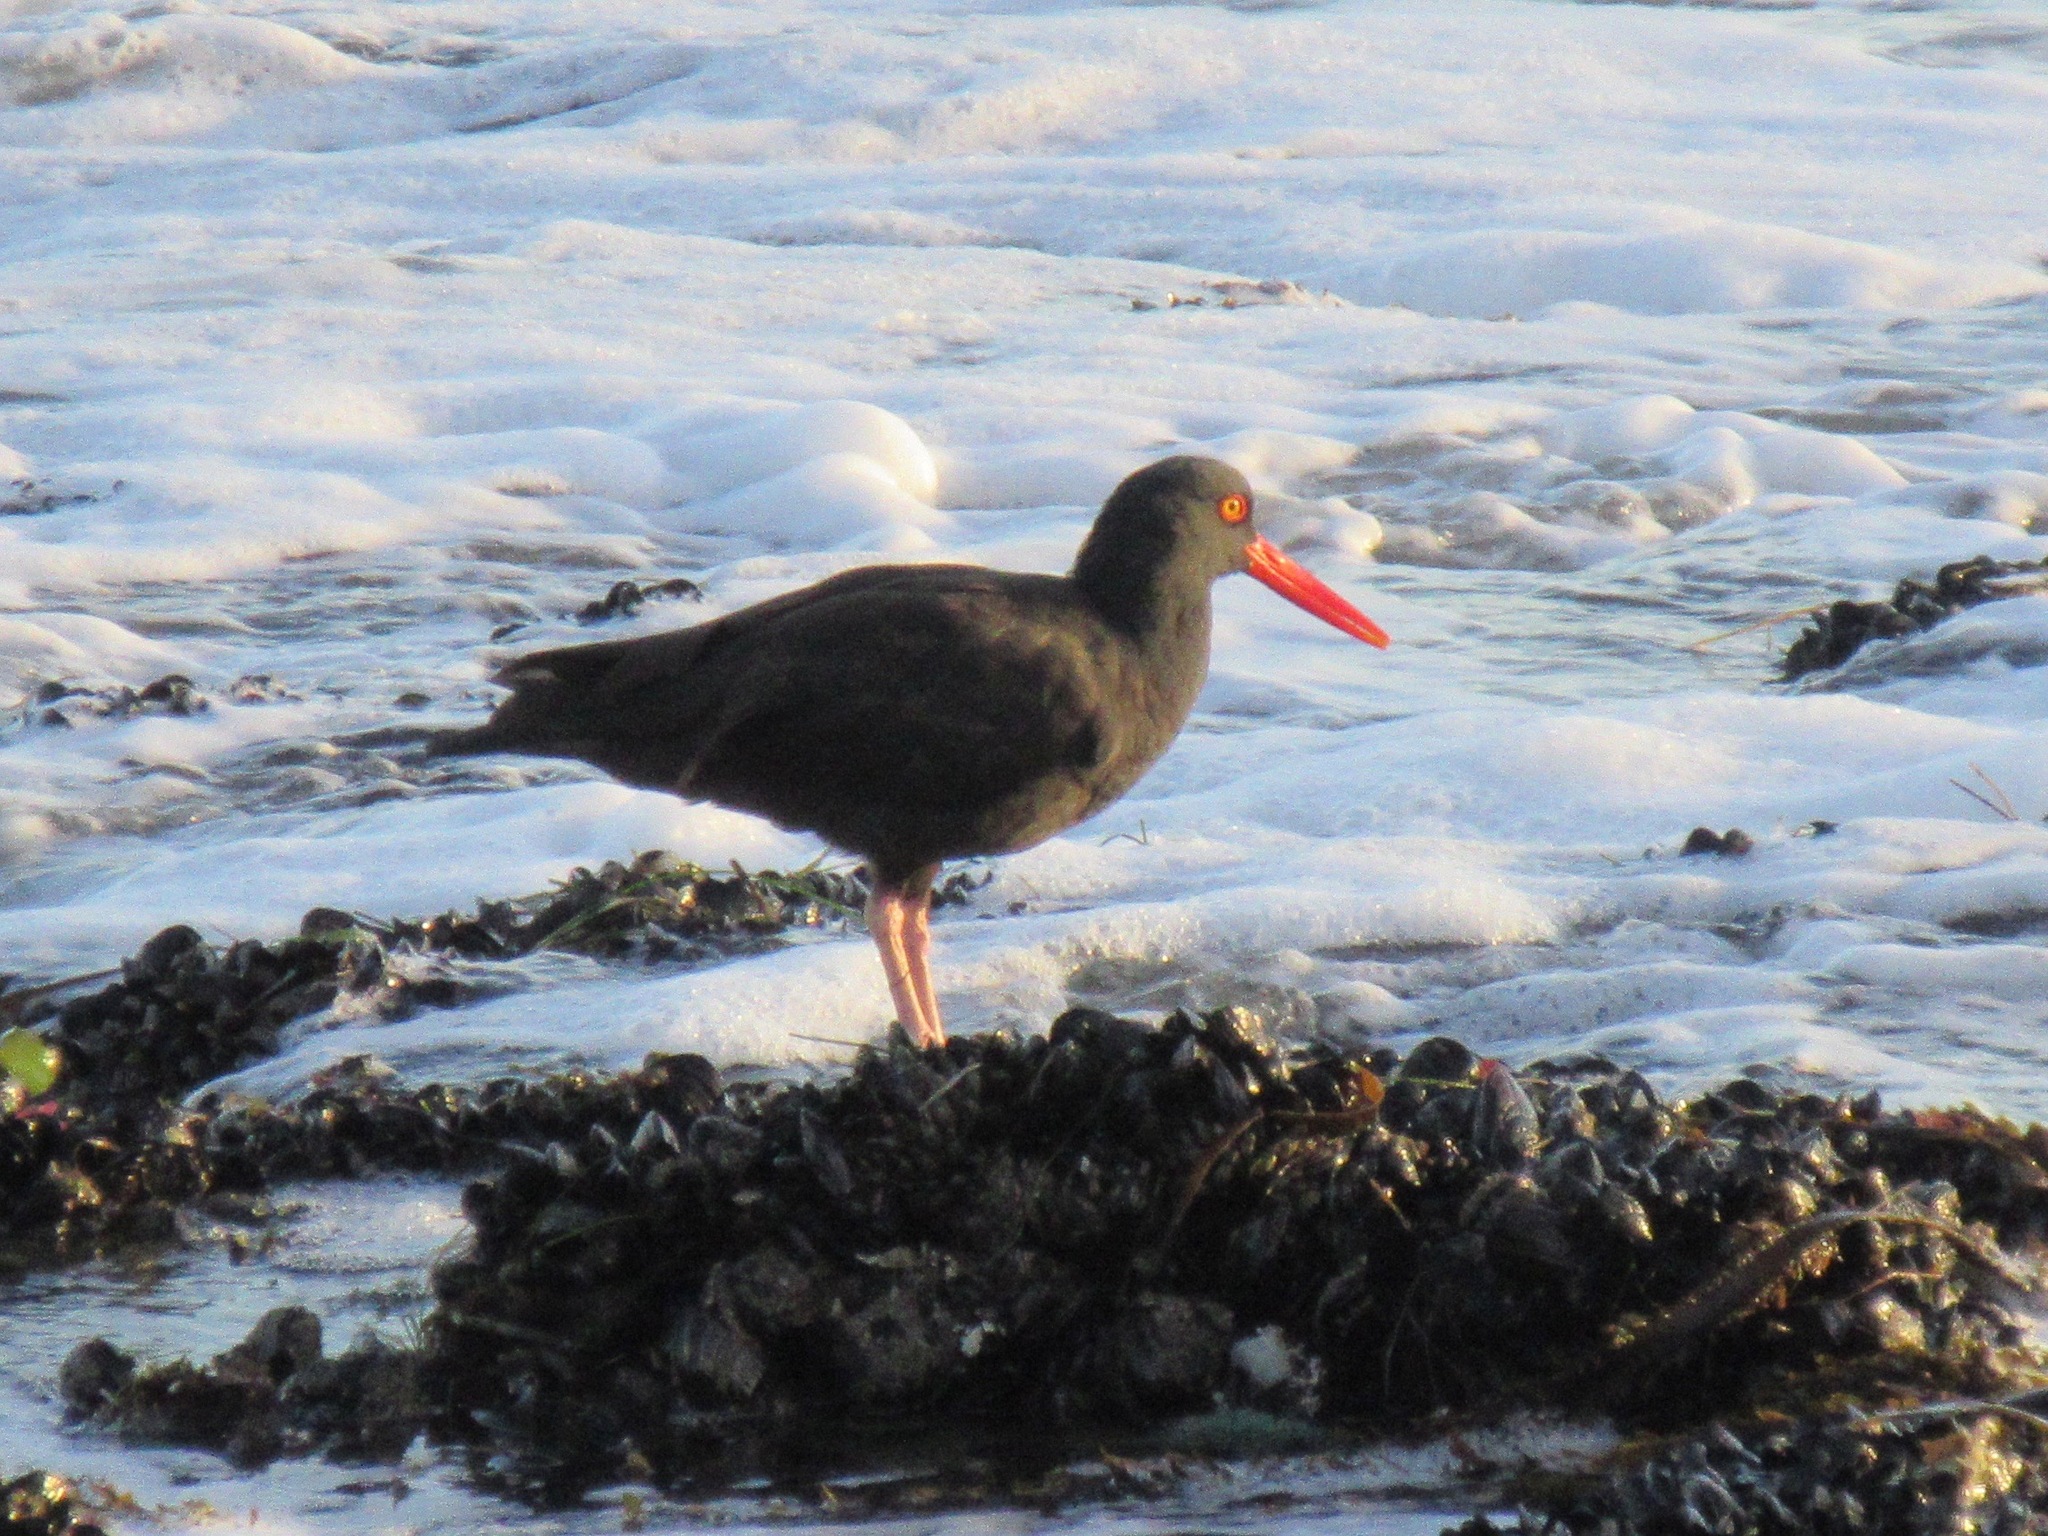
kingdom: Animalia
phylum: Chordata
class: Aves
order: Charadriiformes
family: Haematopodidae
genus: Haematopus
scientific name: Haematopus bachmani
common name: Black oystercatcher
